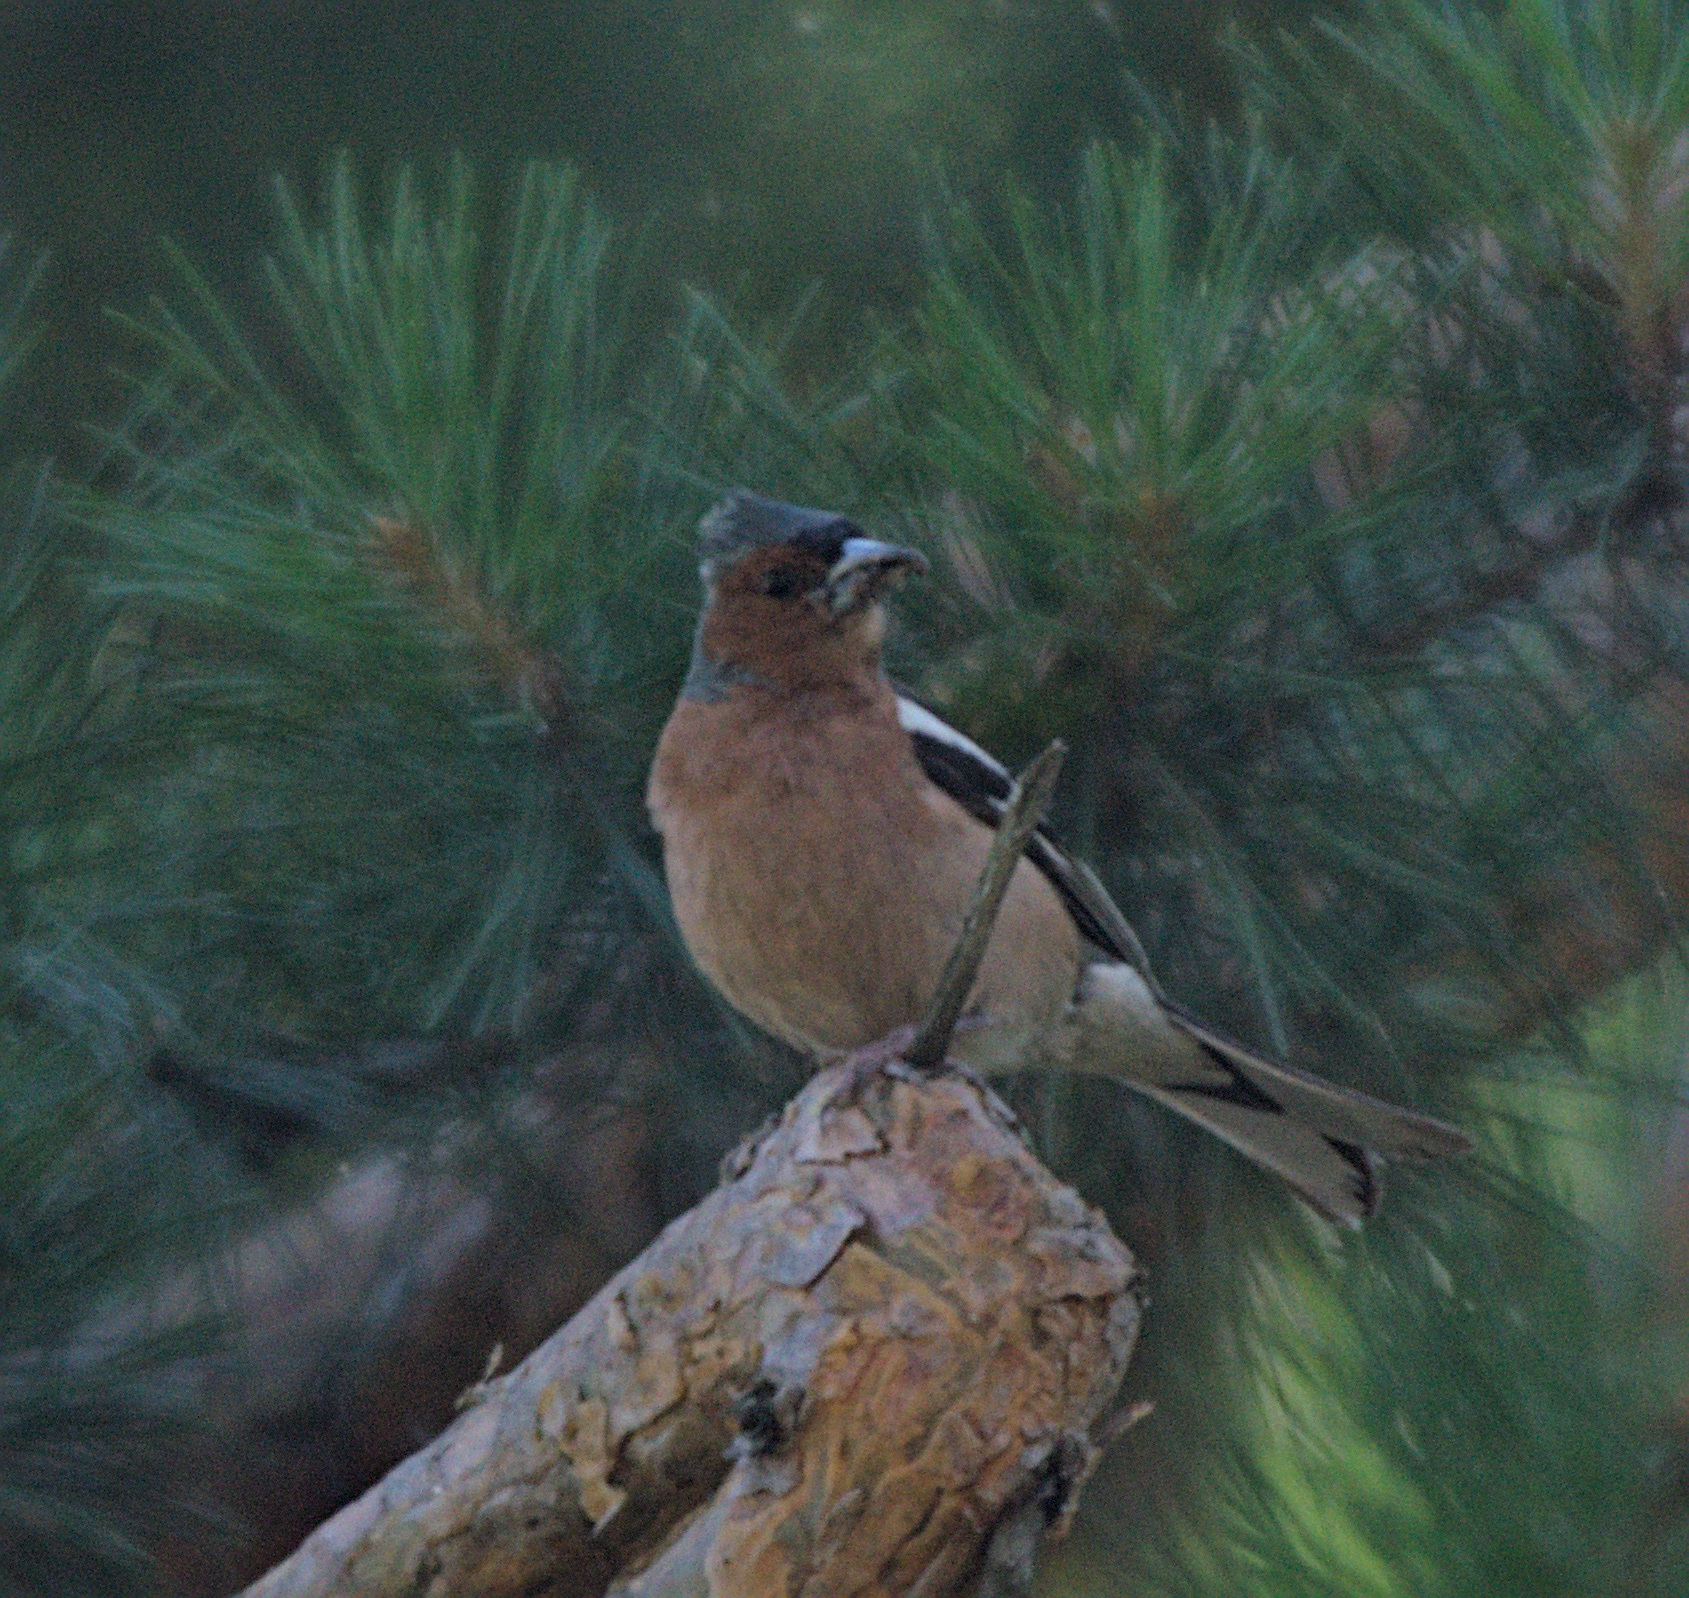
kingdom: Animalia
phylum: Chordata
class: Aves
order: Passeriformes
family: Fringillidae
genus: Fringilla
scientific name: Fringilla coelebs
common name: Common chaffinch
